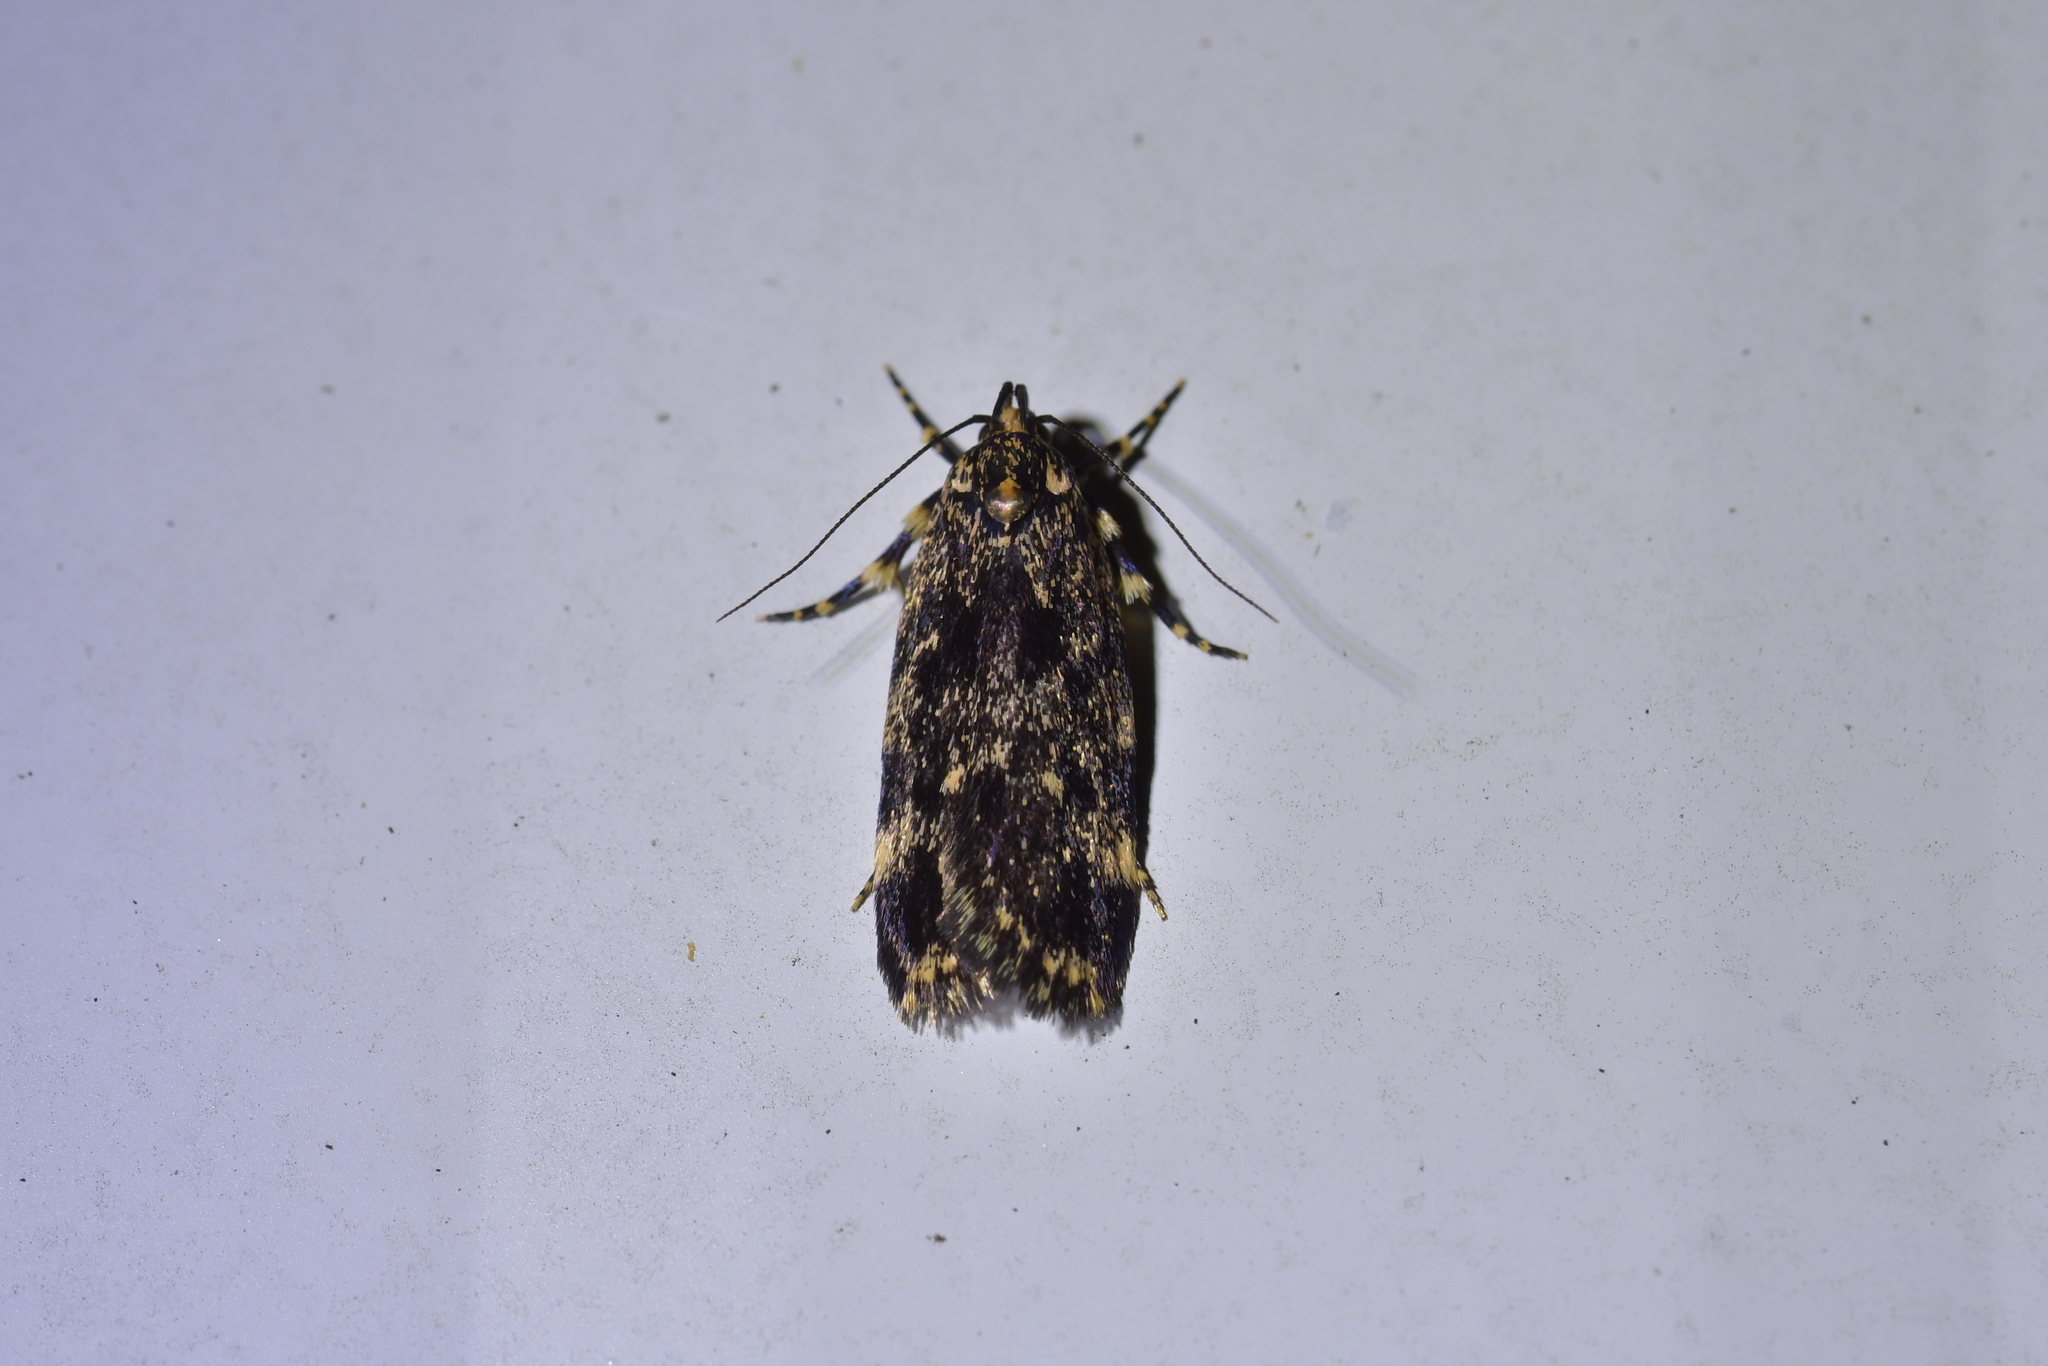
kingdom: Animalia
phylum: Arthropoda
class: Insecta
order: Lepidoptera
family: Oecophoridae
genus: Barea
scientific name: Barea codrella
